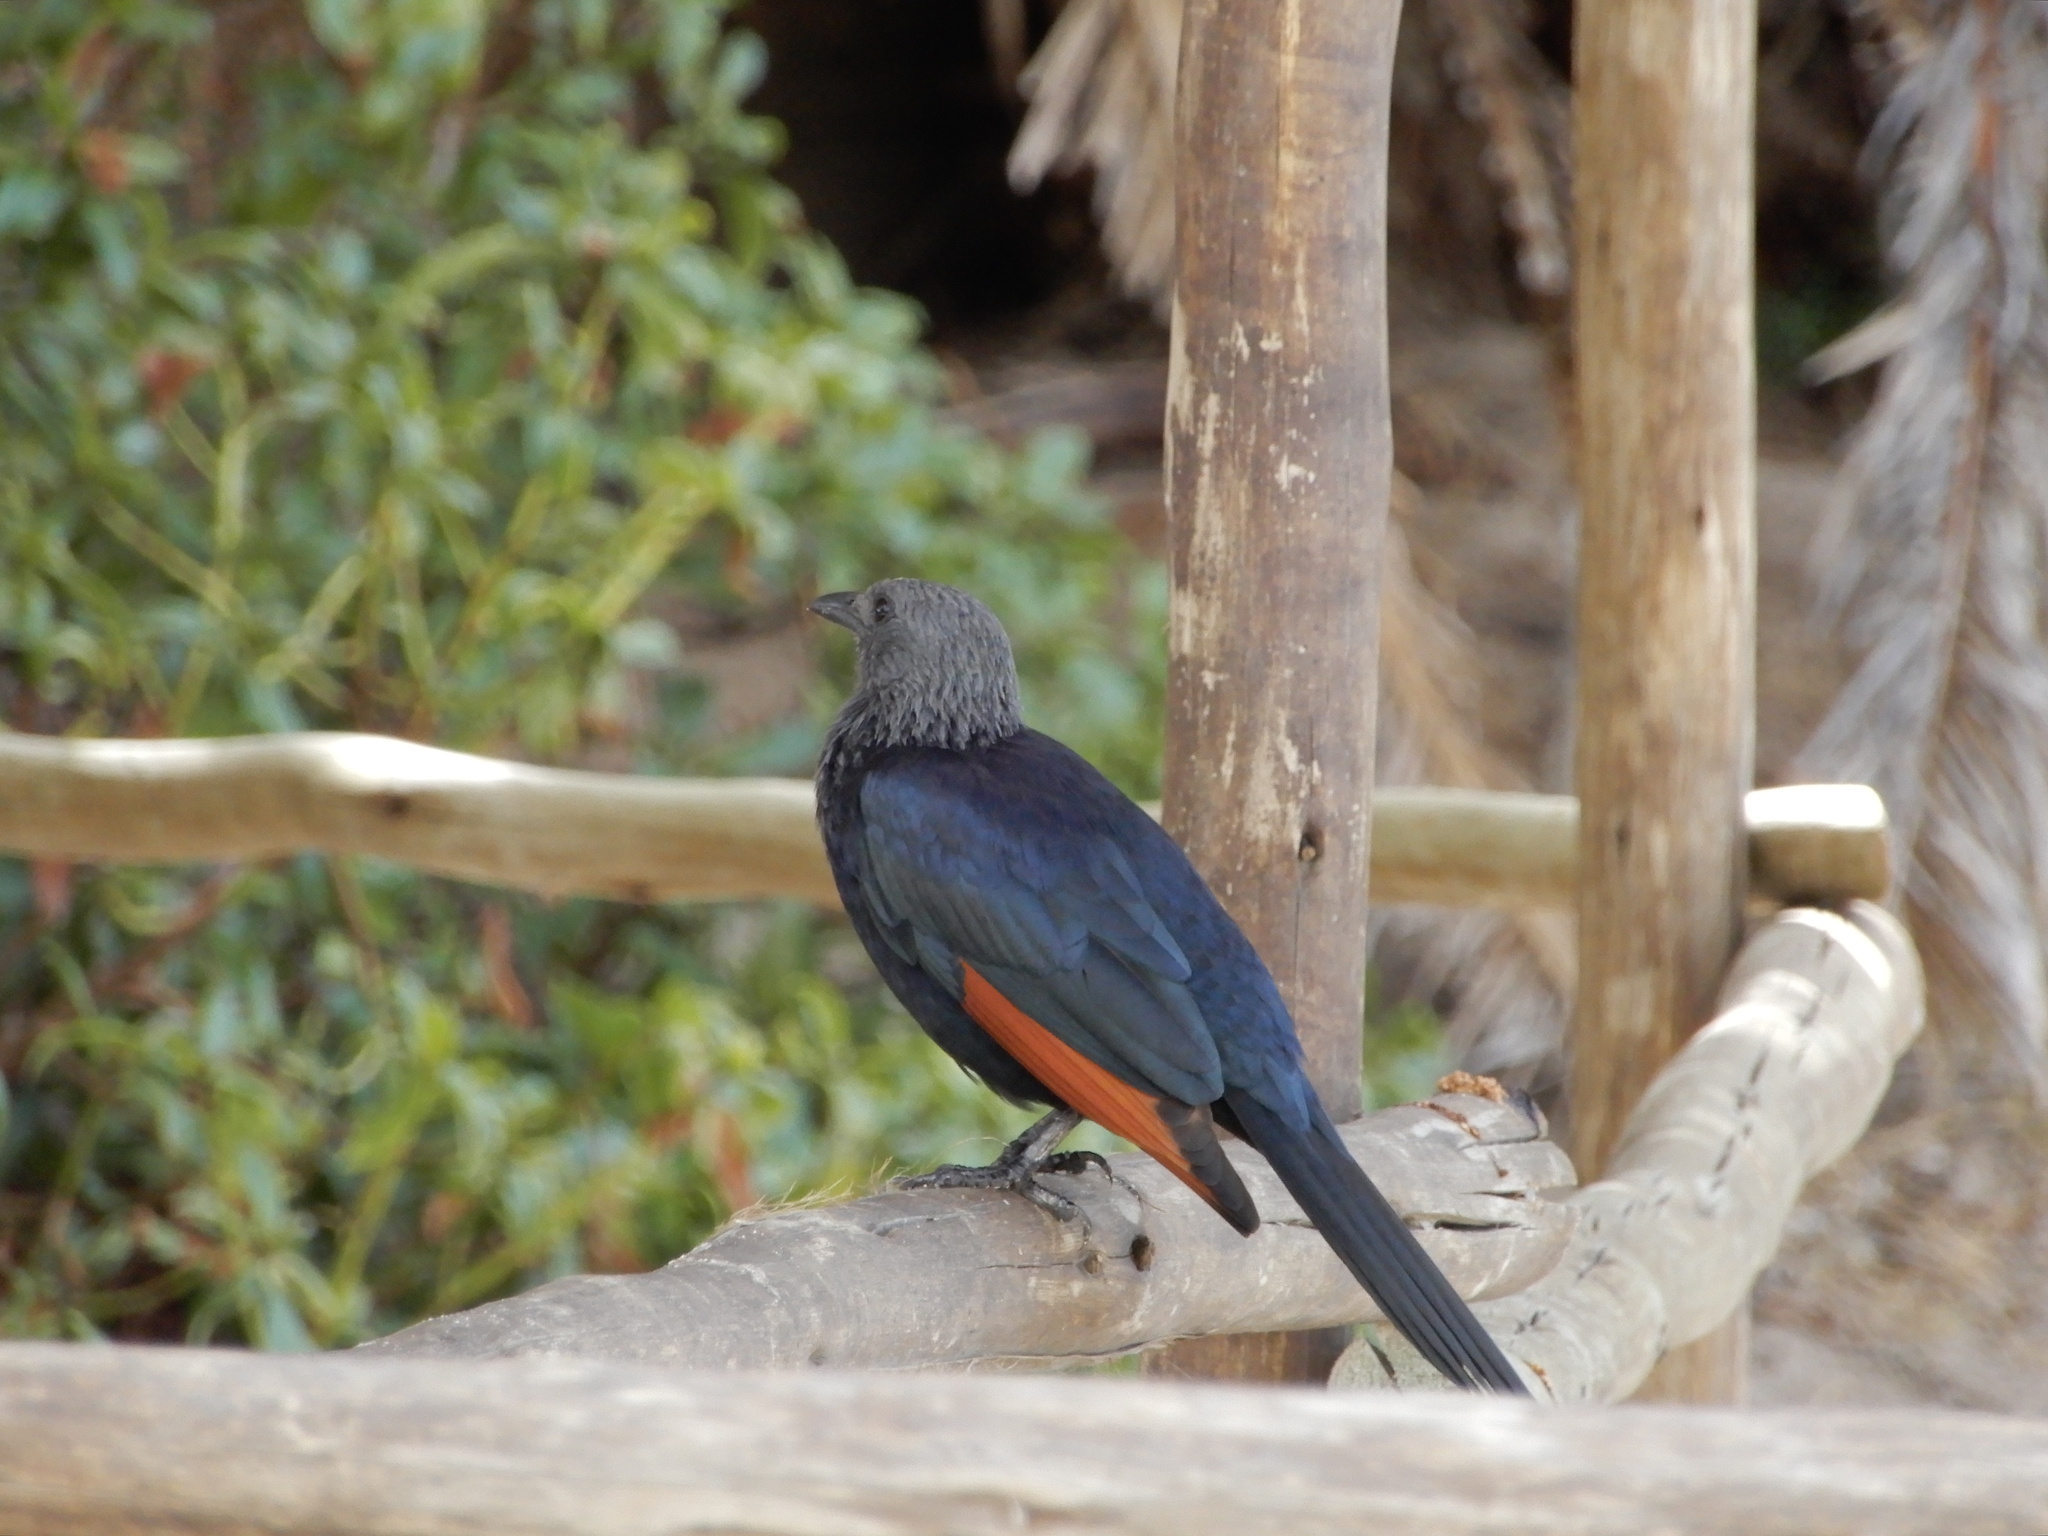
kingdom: Animalia
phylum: Chordata
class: Aves
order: Passeriformes
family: Sturnidae
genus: Onychognathus
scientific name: Onychognathus morio
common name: Red-winged starling
